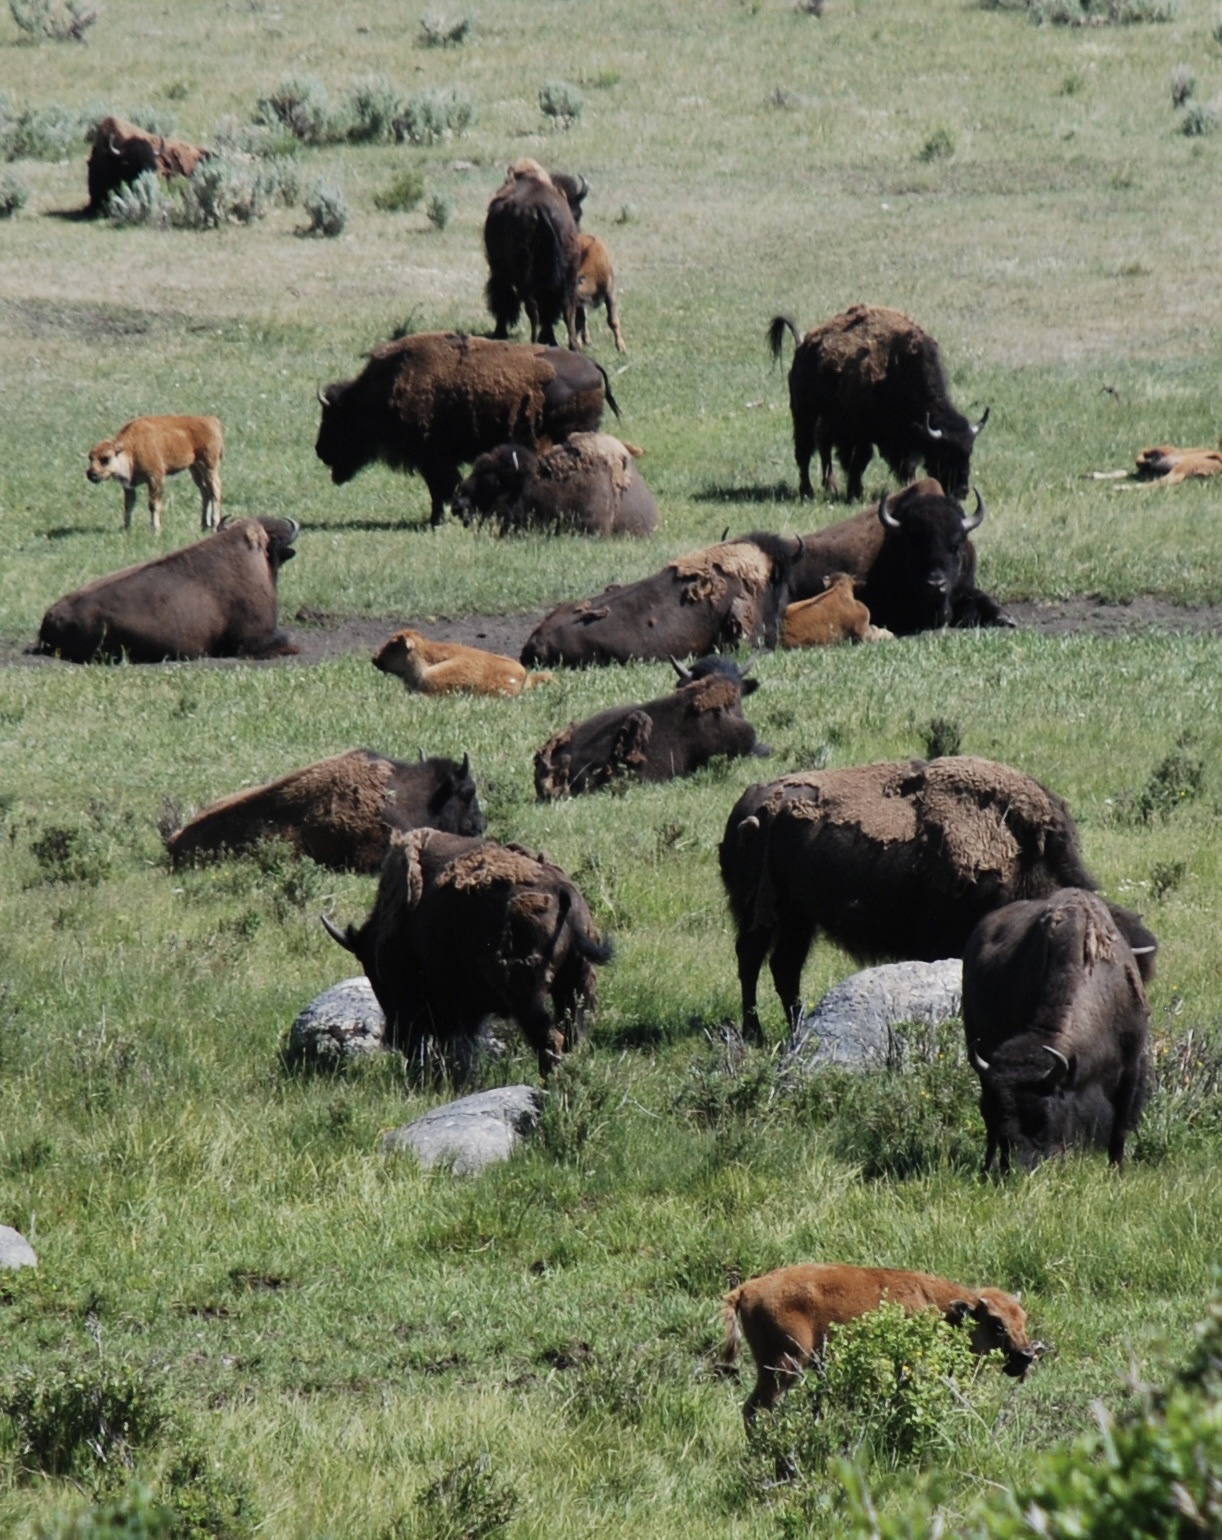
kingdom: Animalia
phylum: Chordata
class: Mammalia
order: Artiodactyla
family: Bovidae
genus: Bison
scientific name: Bison bison
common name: American bison
